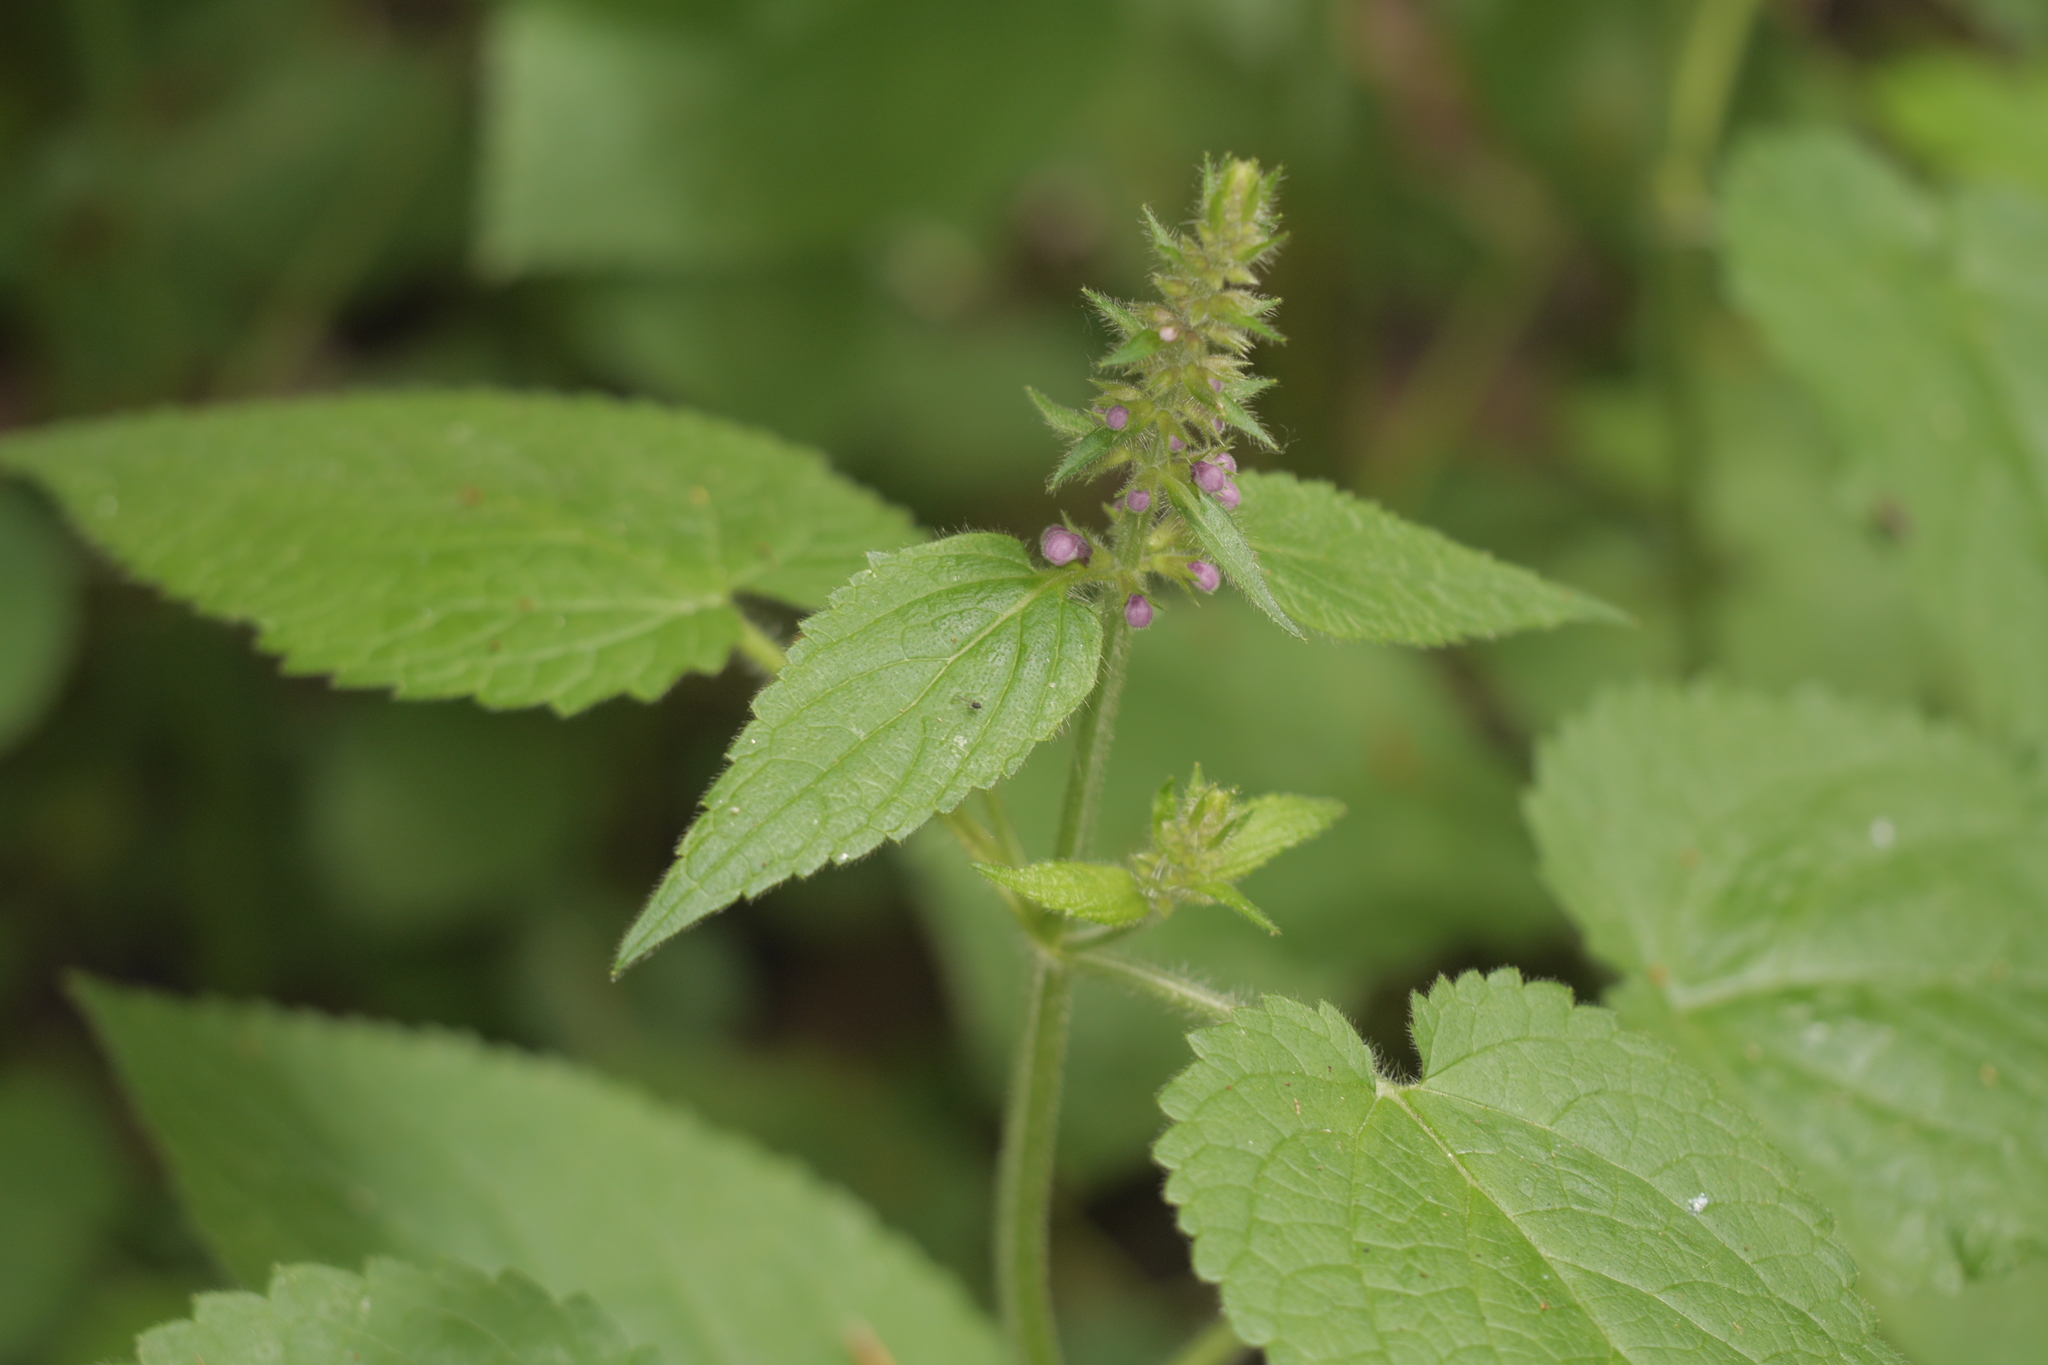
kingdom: Plantae
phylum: Tracheophyta
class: Magnoliopsida
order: Lamiales
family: Lamiaceae
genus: Stachys
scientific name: Stachys sylvatica
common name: Hedge woundwort
